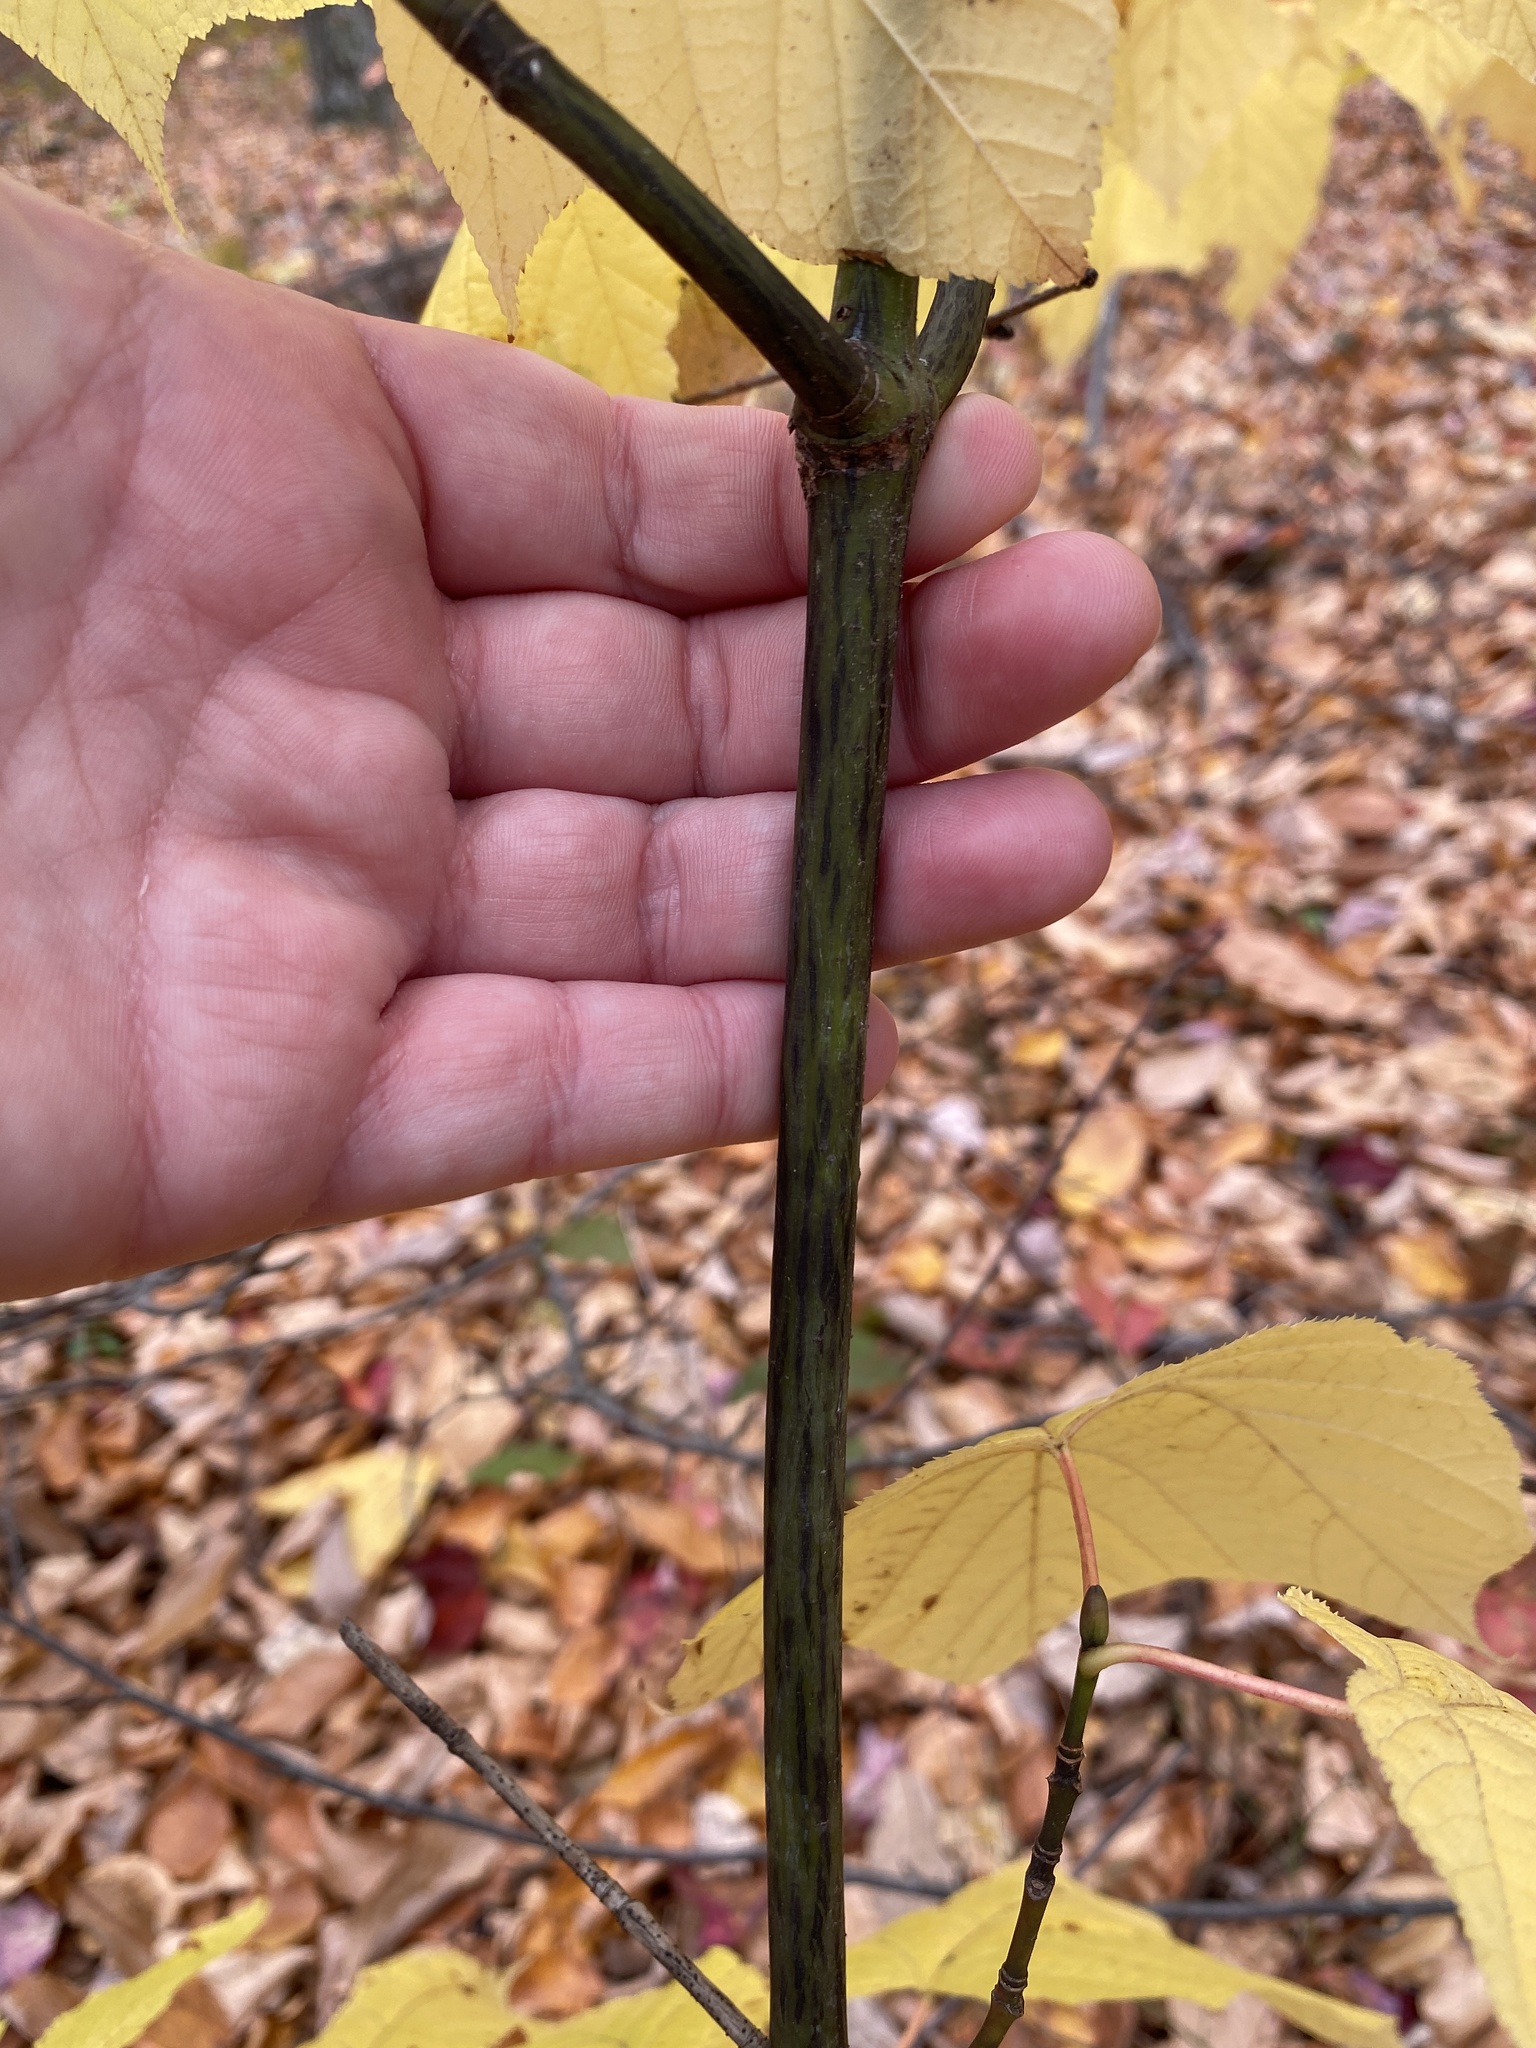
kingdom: Plantae
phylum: Tracheophyta
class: Magnoliopsida
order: Sapindales
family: Sapindaceae
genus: Acer
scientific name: Acer pensylvanicum
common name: Moosewood
